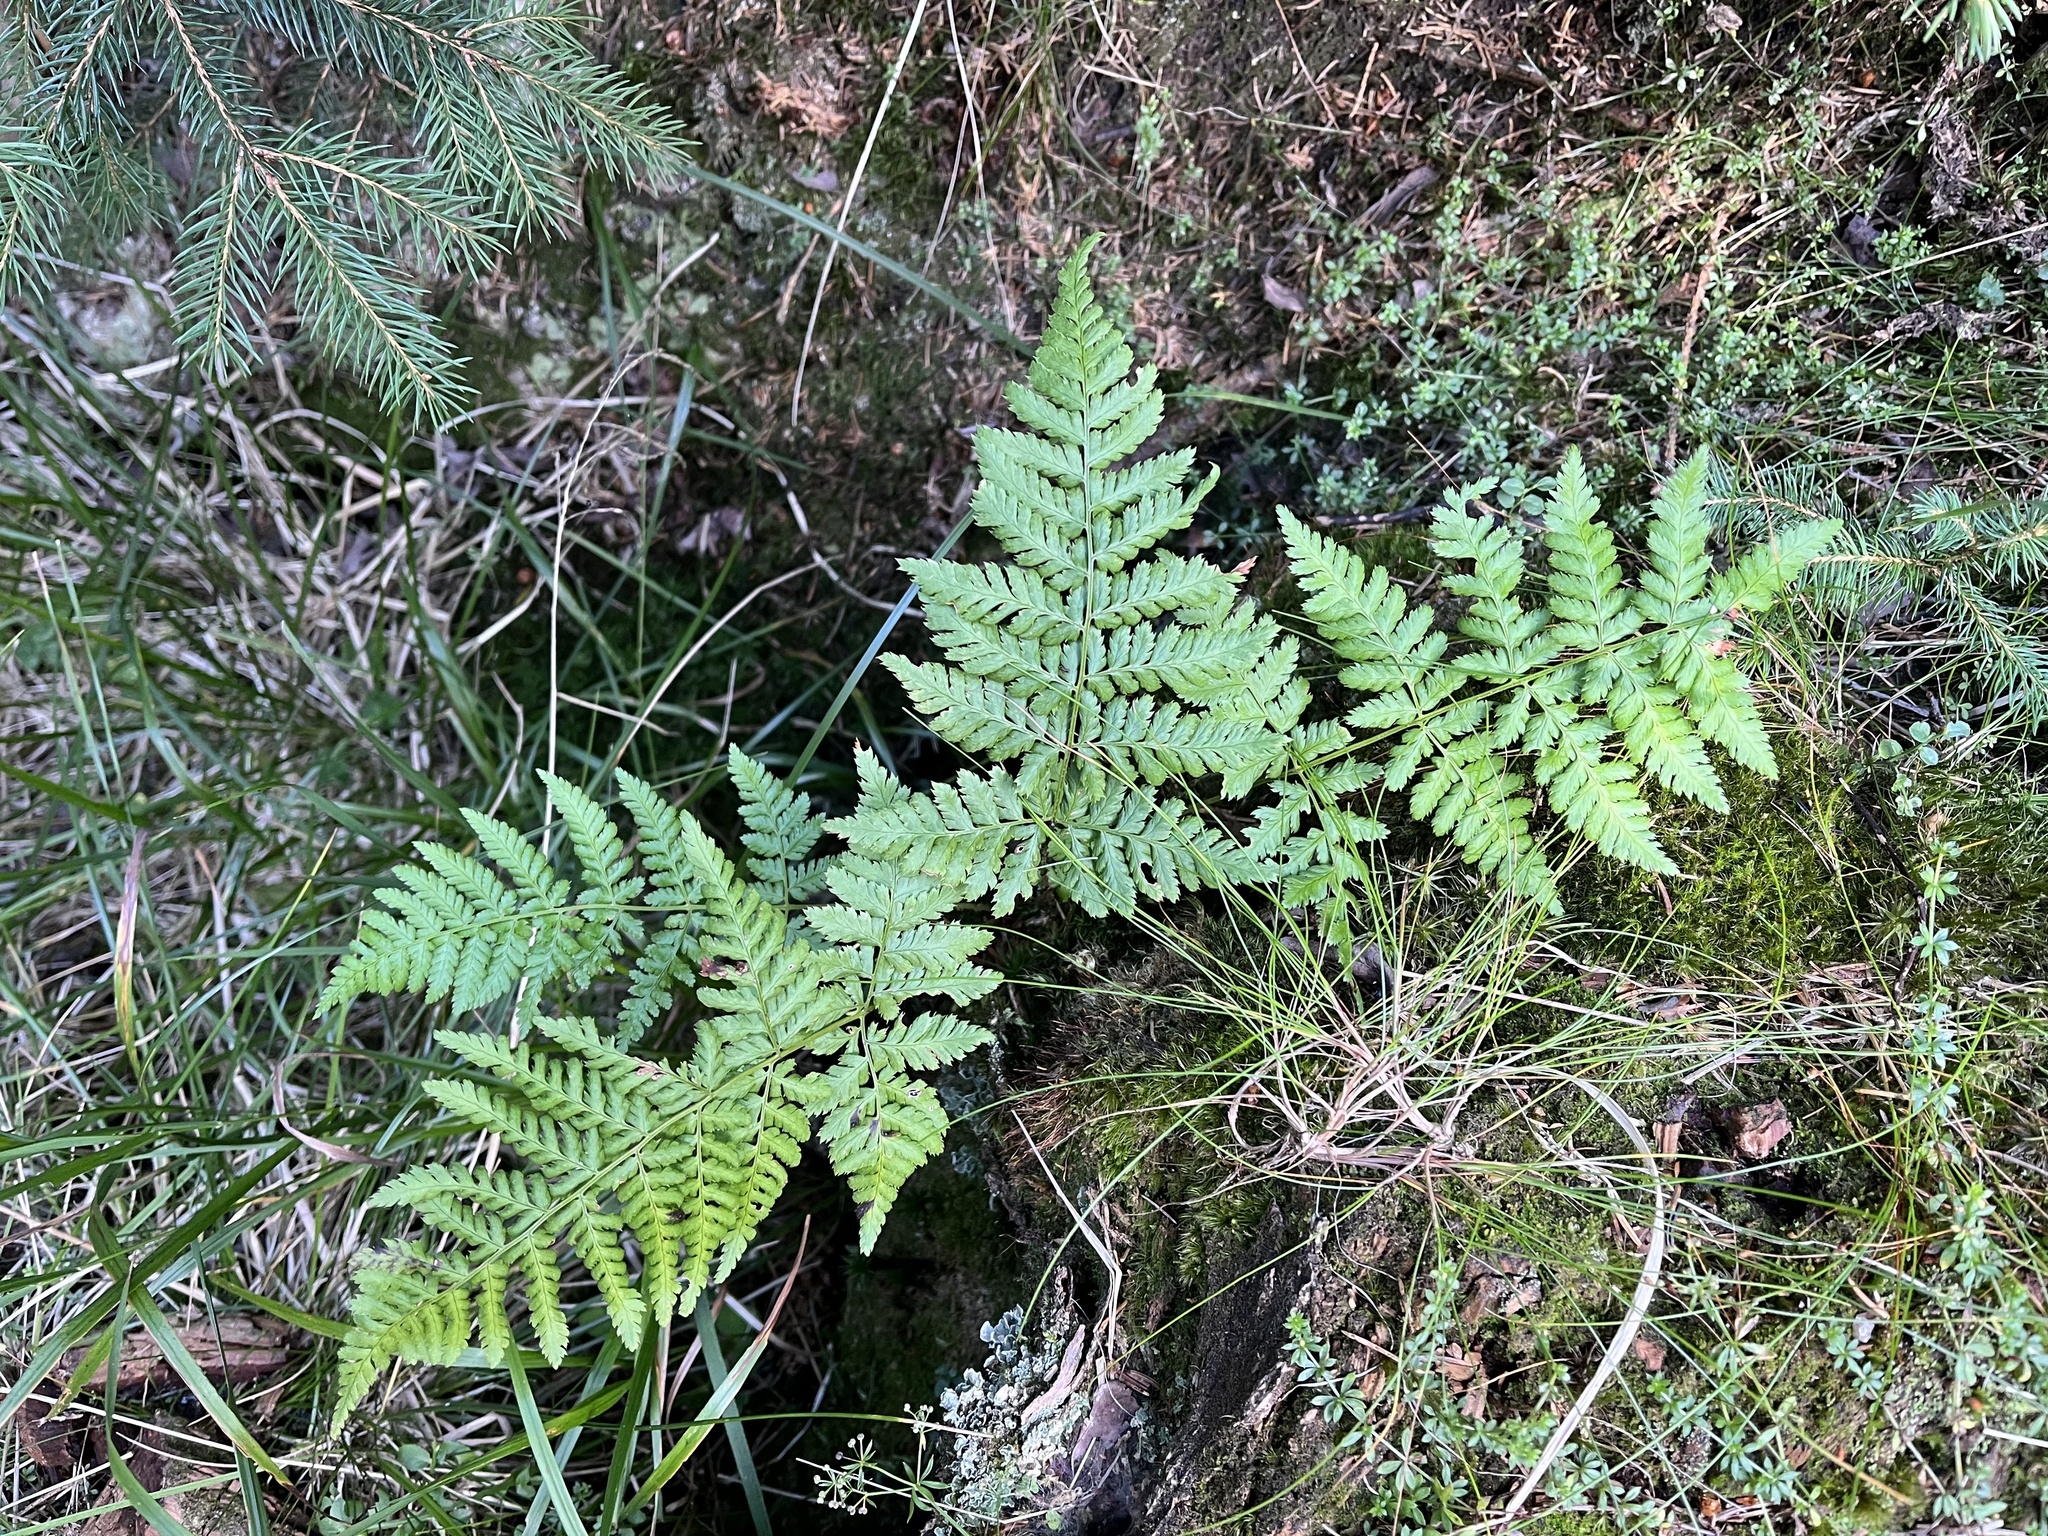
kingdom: Plantae
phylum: Tracheophyta
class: Polypodiopsida
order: Polypodiales
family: Dryopteridaceae
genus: Dryopteris
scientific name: Dryopteris dilatata
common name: Broad buckler-fern
